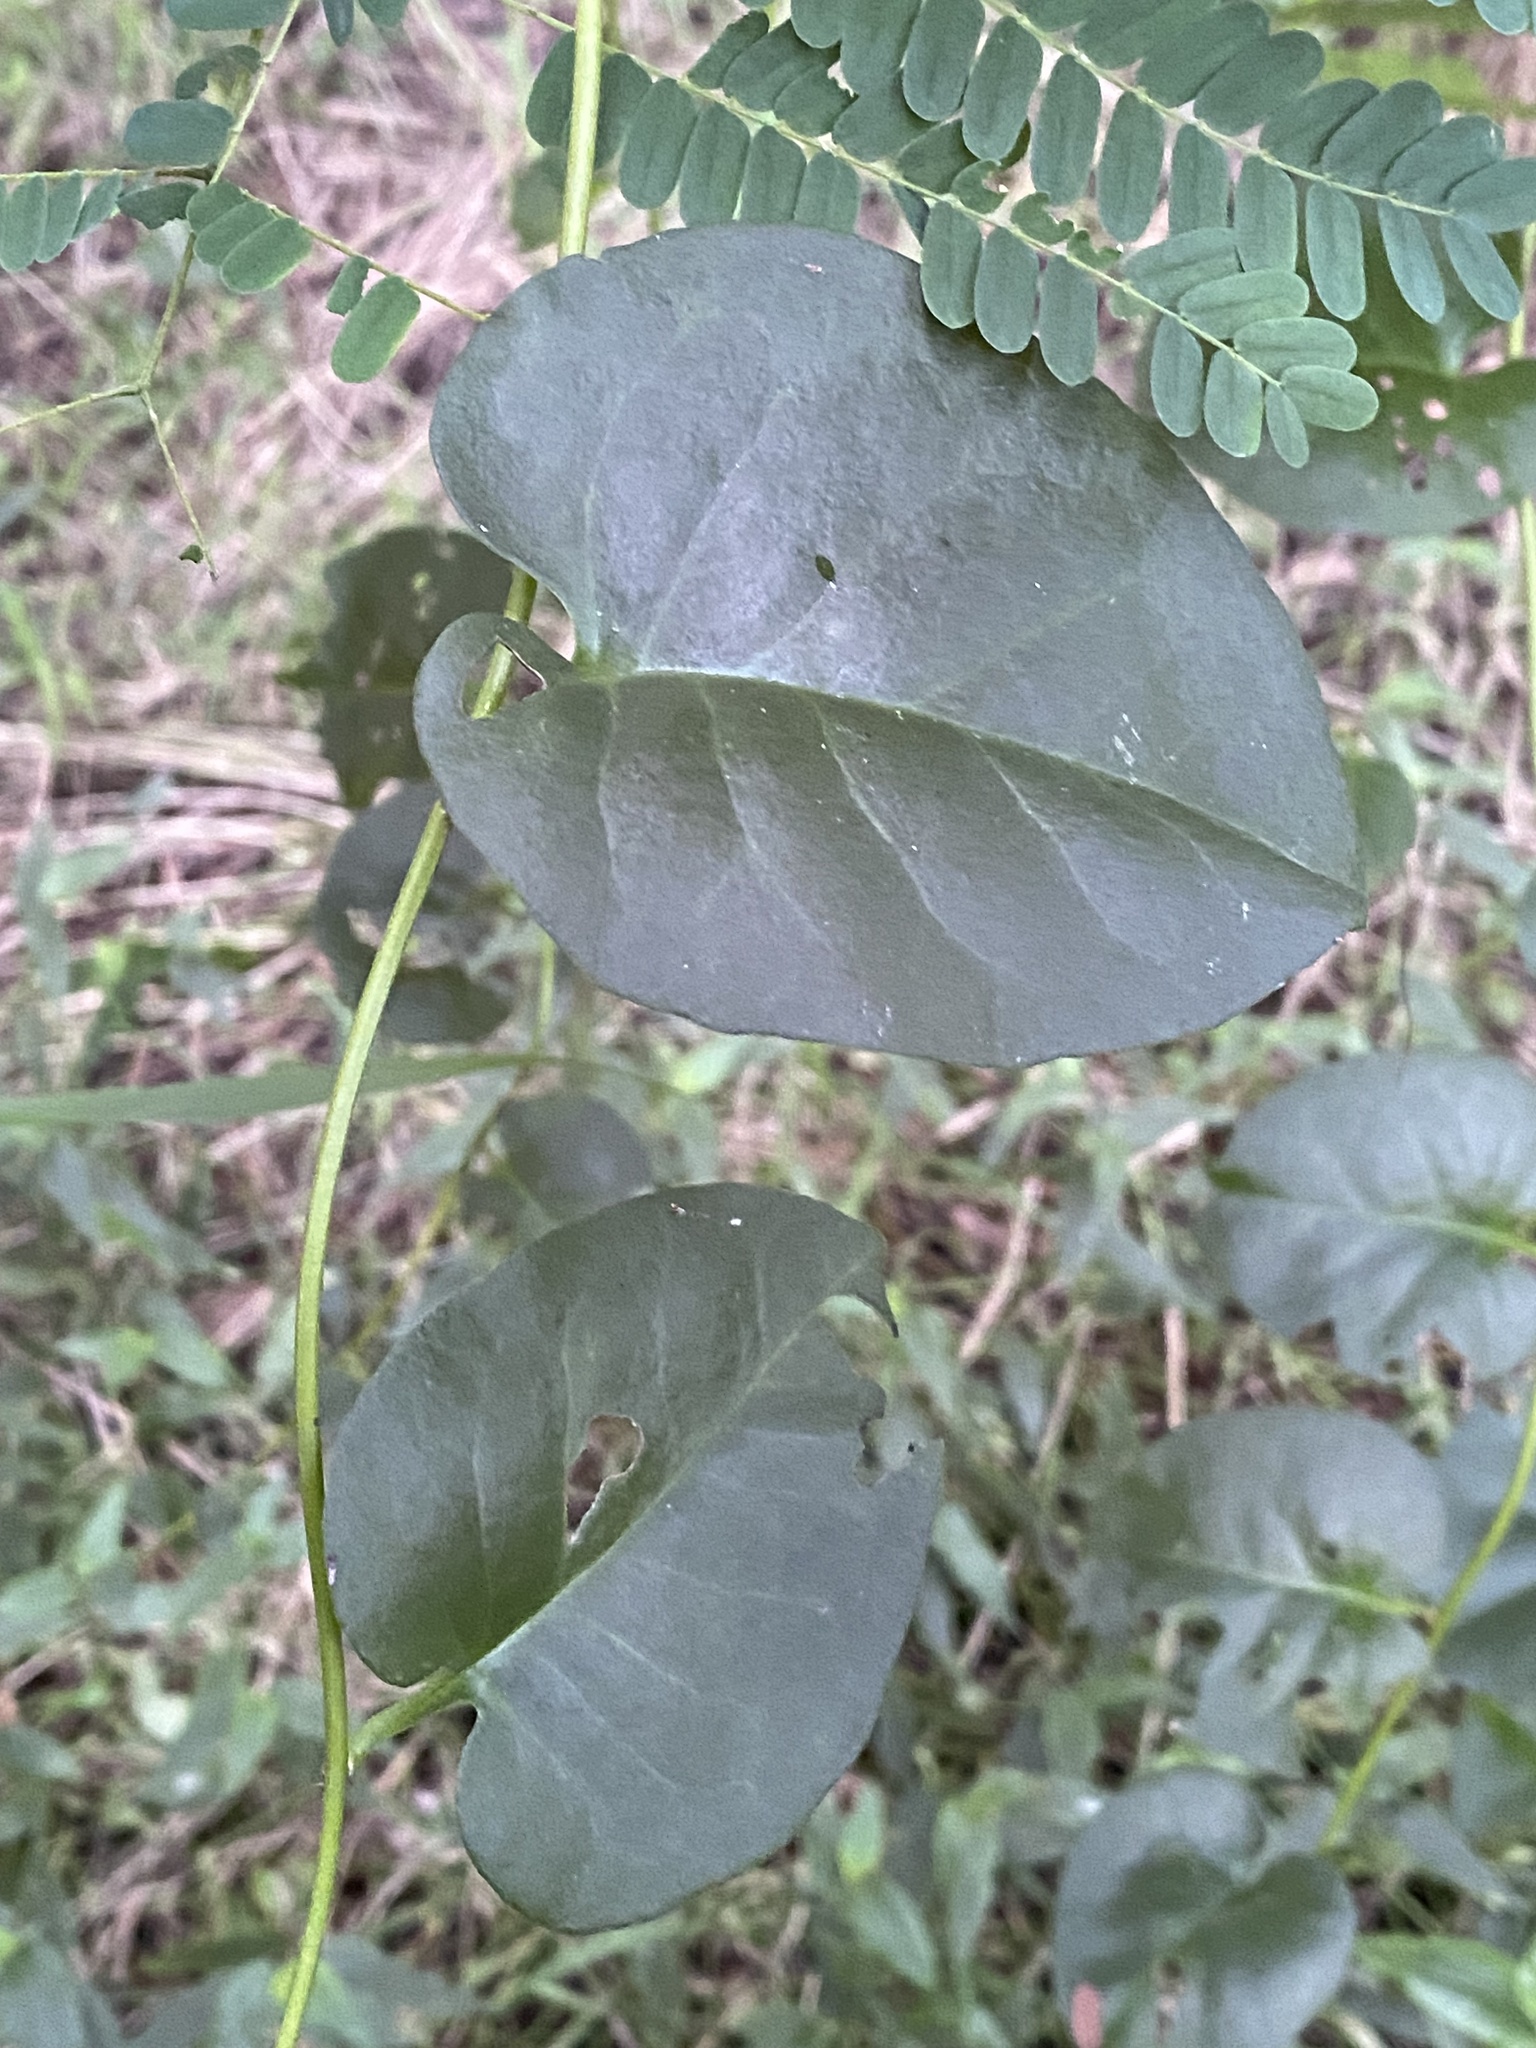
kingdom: Plantae
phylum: Tracheophyta
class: Magnoliopsida
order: Caryophyllales
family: Basellaceae
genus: Anredera
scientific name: Anredera cordifolia
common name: Heartleaf madeiravine
